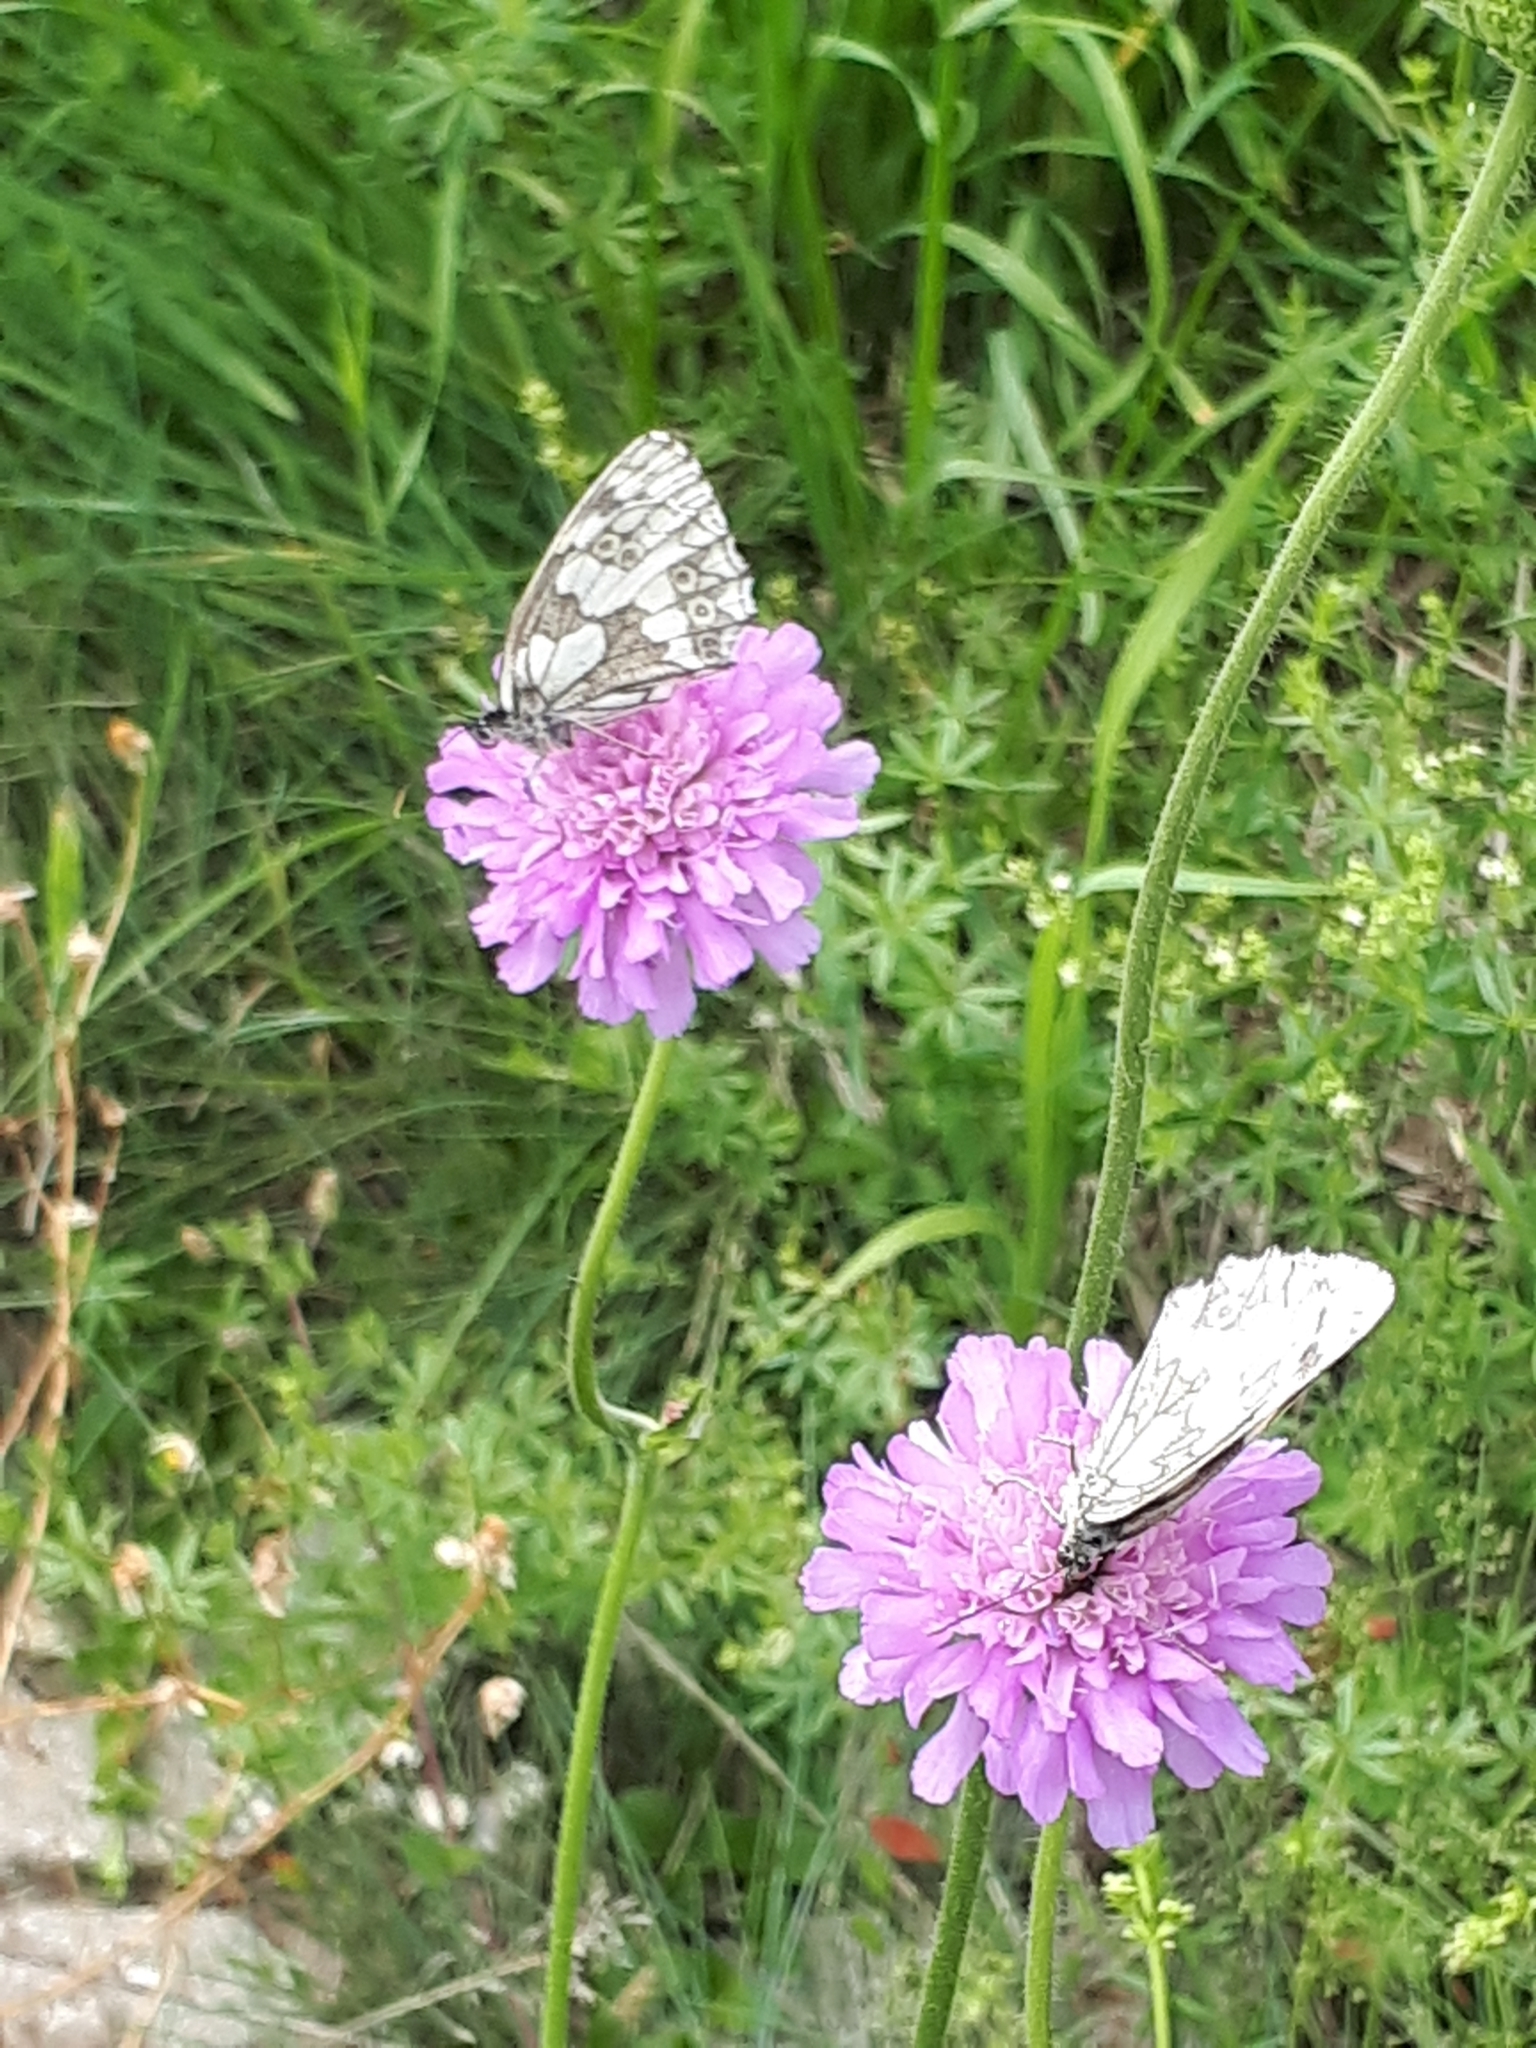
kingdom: Animalia
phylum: Arthropoda
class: Insecta
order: Lepidoptera
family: Nymphalidae
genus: Melanargia
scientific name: Melanargia galathea
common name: Marbled white
